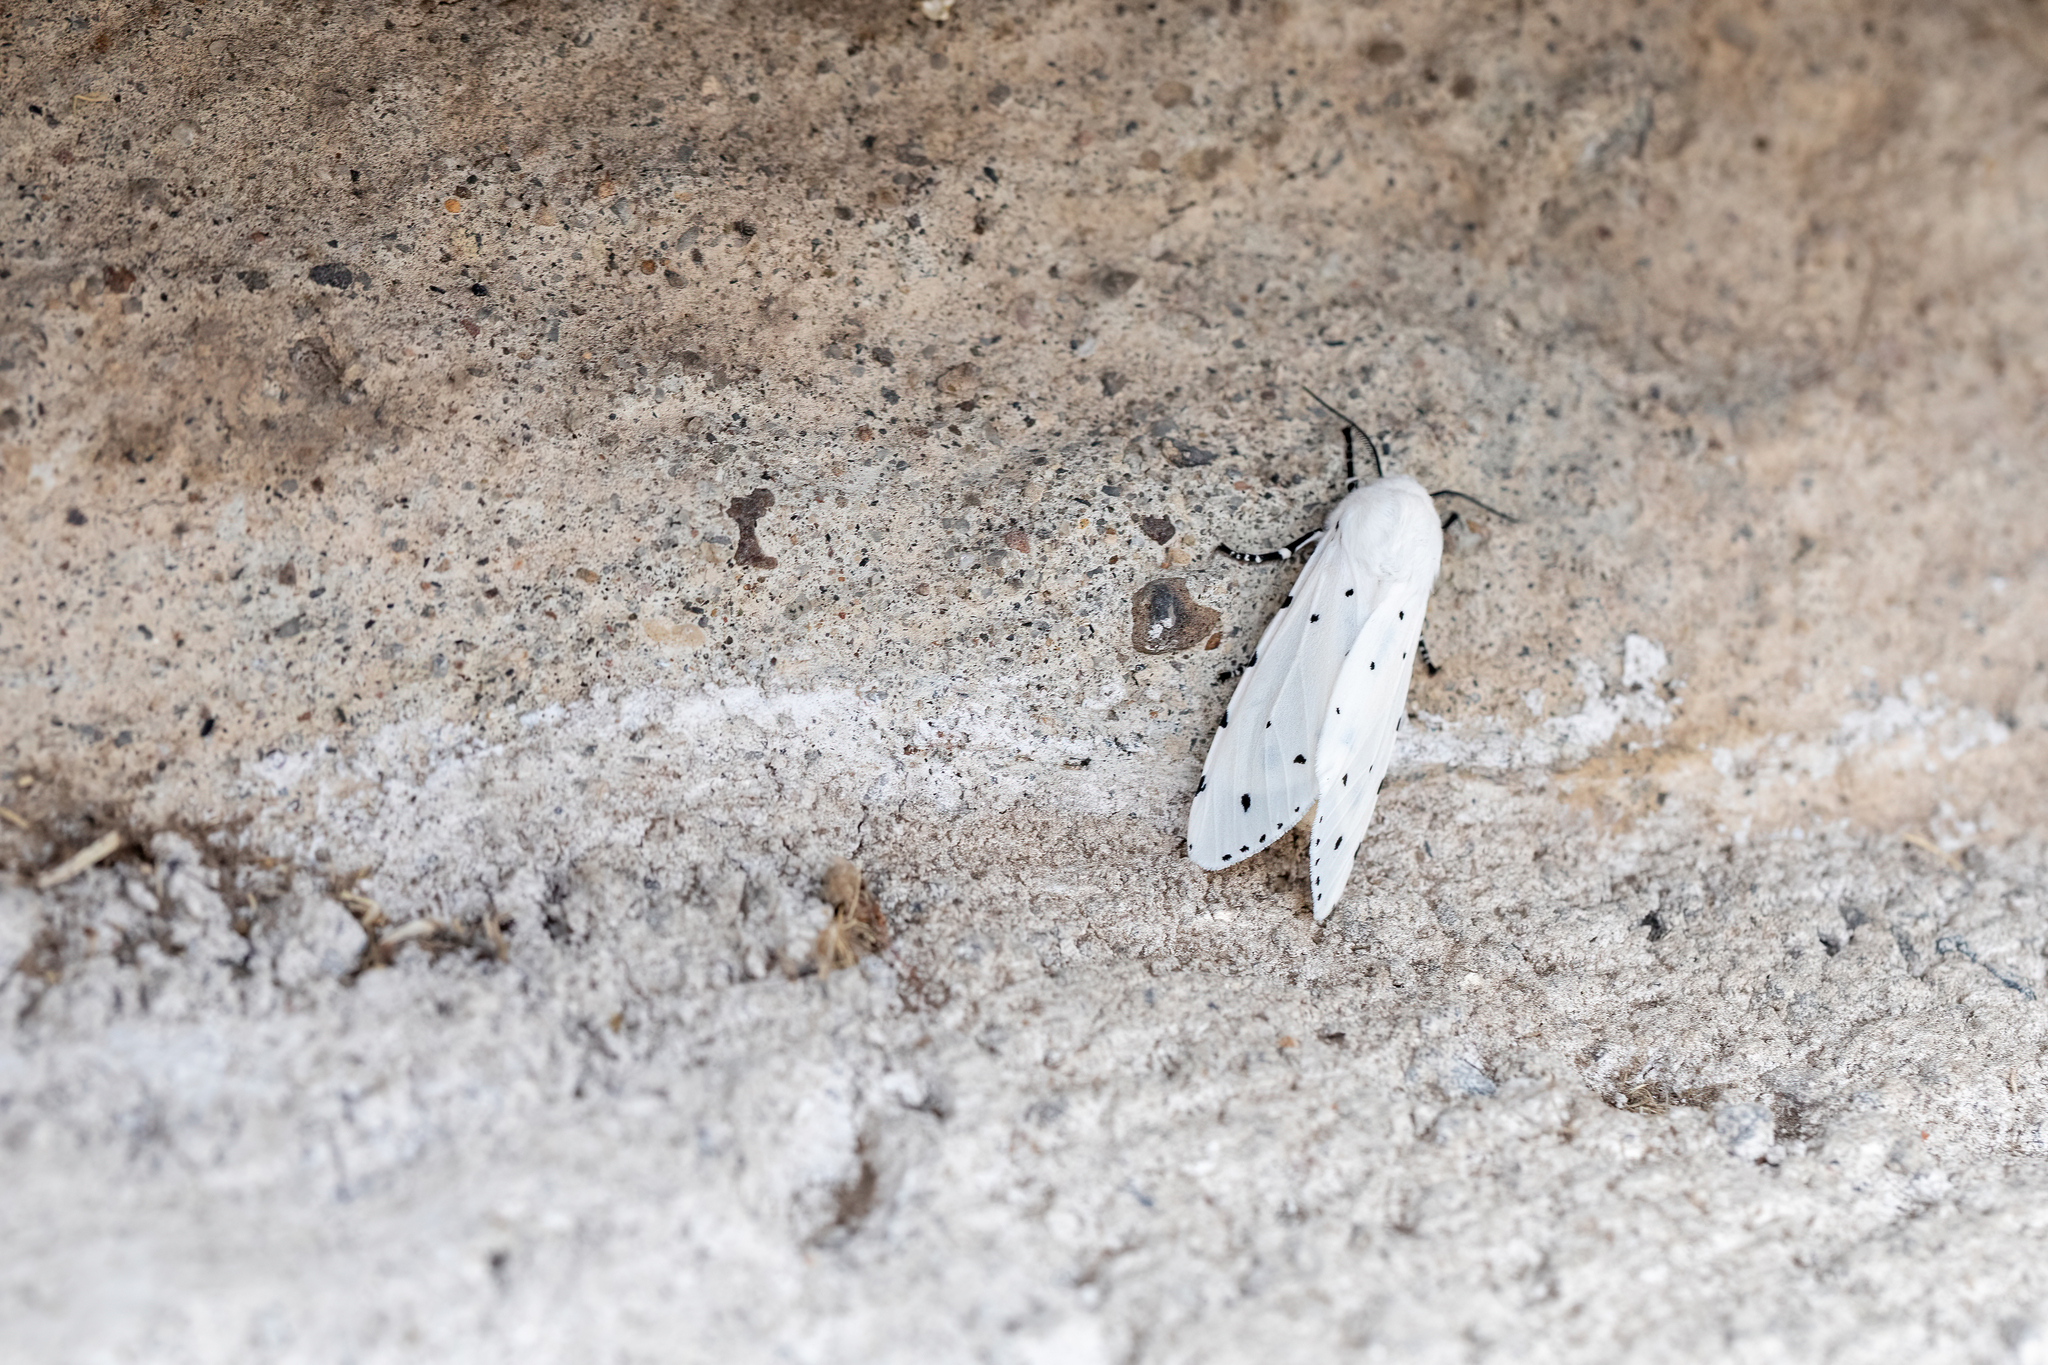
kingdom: Animalia
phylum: Arthropoda
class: Insecta
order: Lepidoptera
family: Erebidae
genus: Estigmene
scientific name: Estigmene acrea
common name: Salt marsh moth
